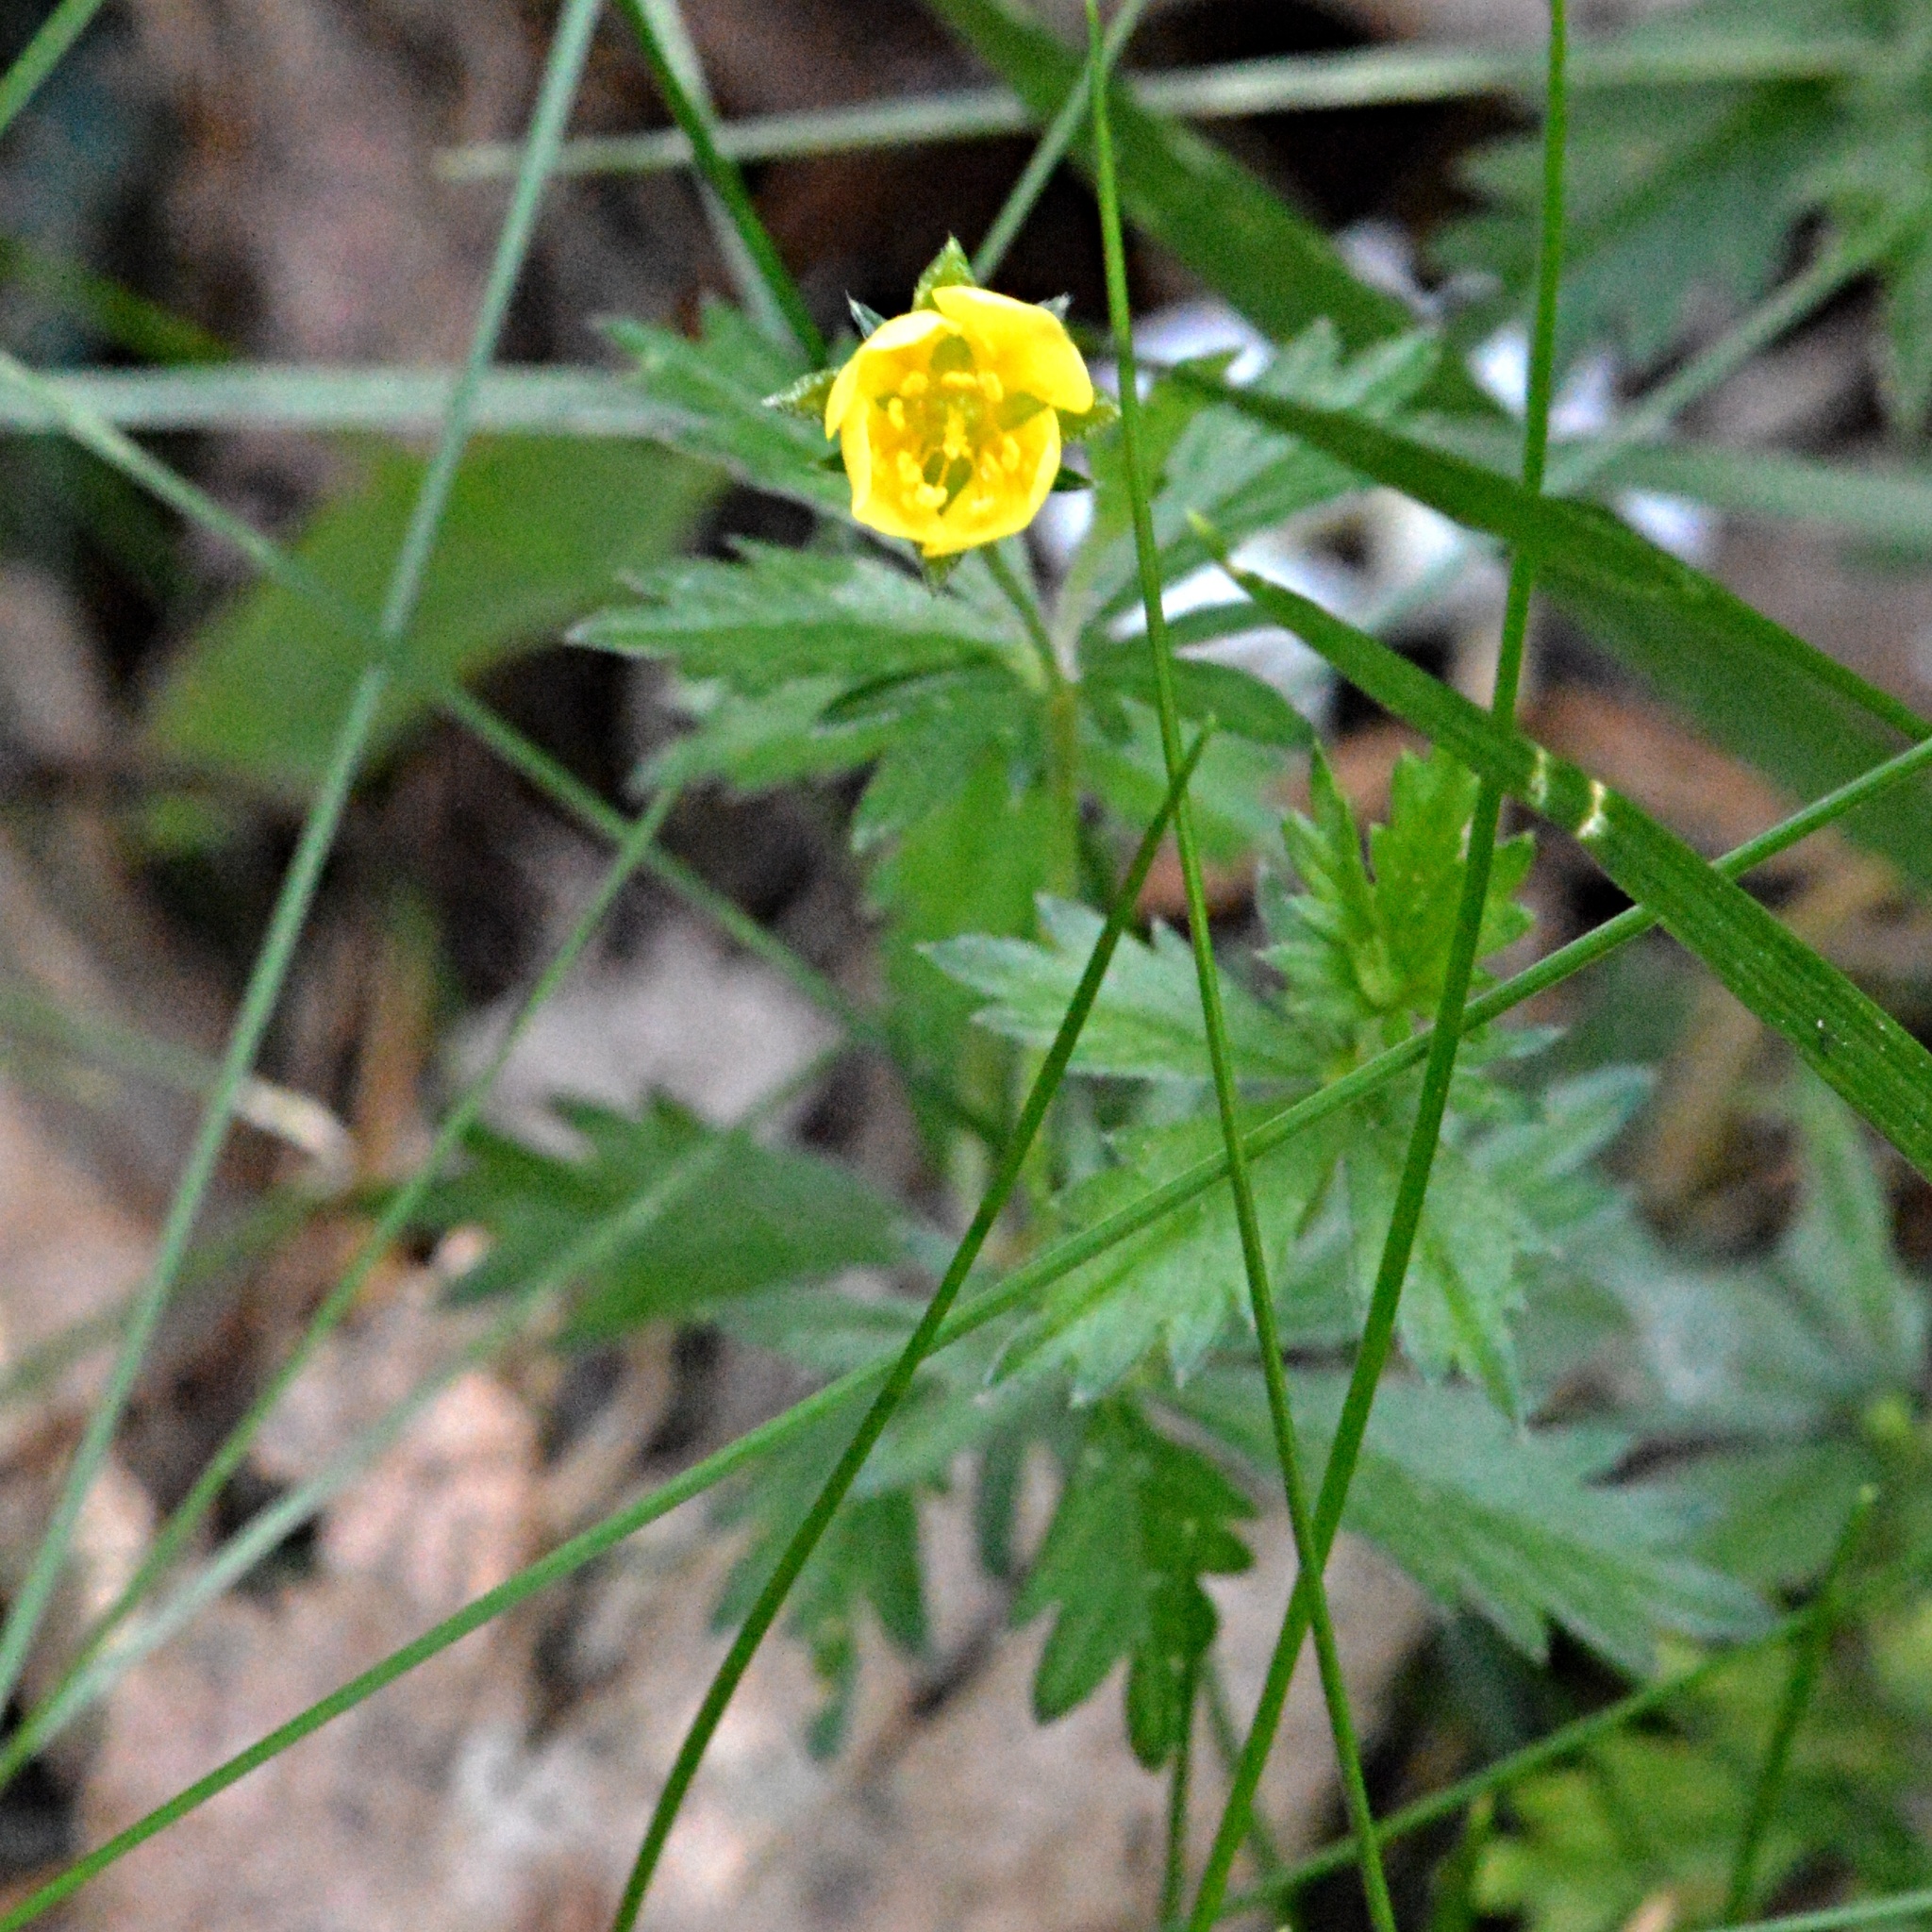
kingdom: Plantae
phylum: Tracheophyta
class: Magnoliopsida
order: Rosales
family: Rosaceae
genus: Potentilla
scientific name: Potentilla erecta
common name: Tormentil
